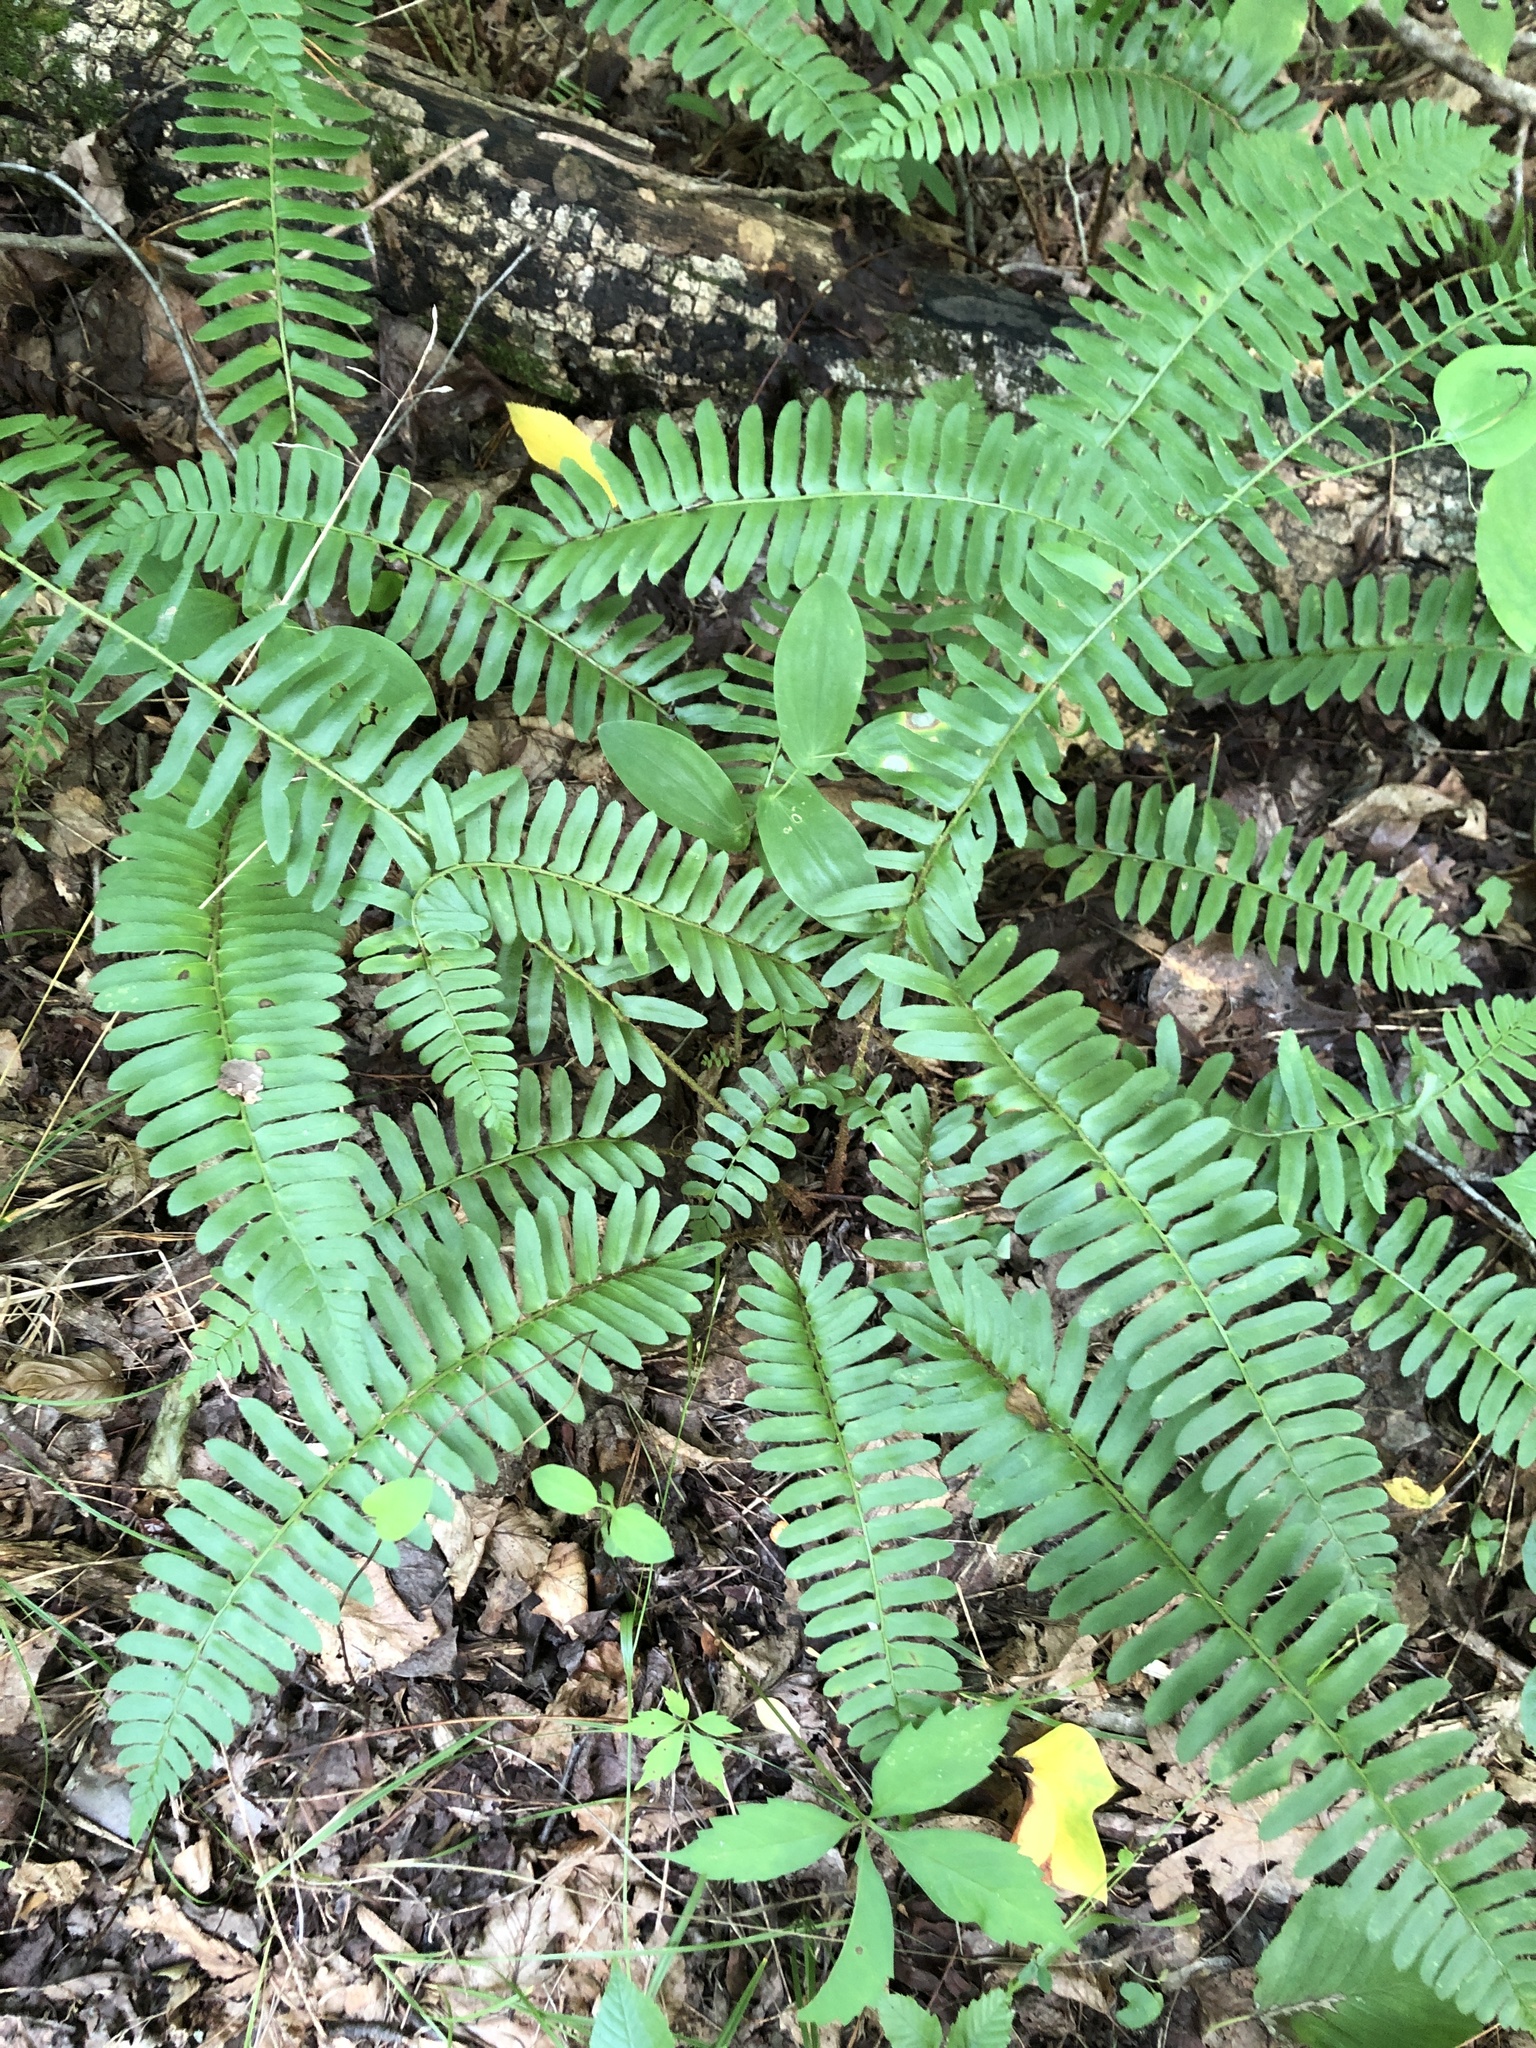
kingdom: Plantae
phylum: Tracheophyta
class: Polypodiopsida
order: Polypodiales
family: Dryopteridaceae
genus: Polystichum
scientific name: Polystichum acrostichoides
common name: Christmas fern
